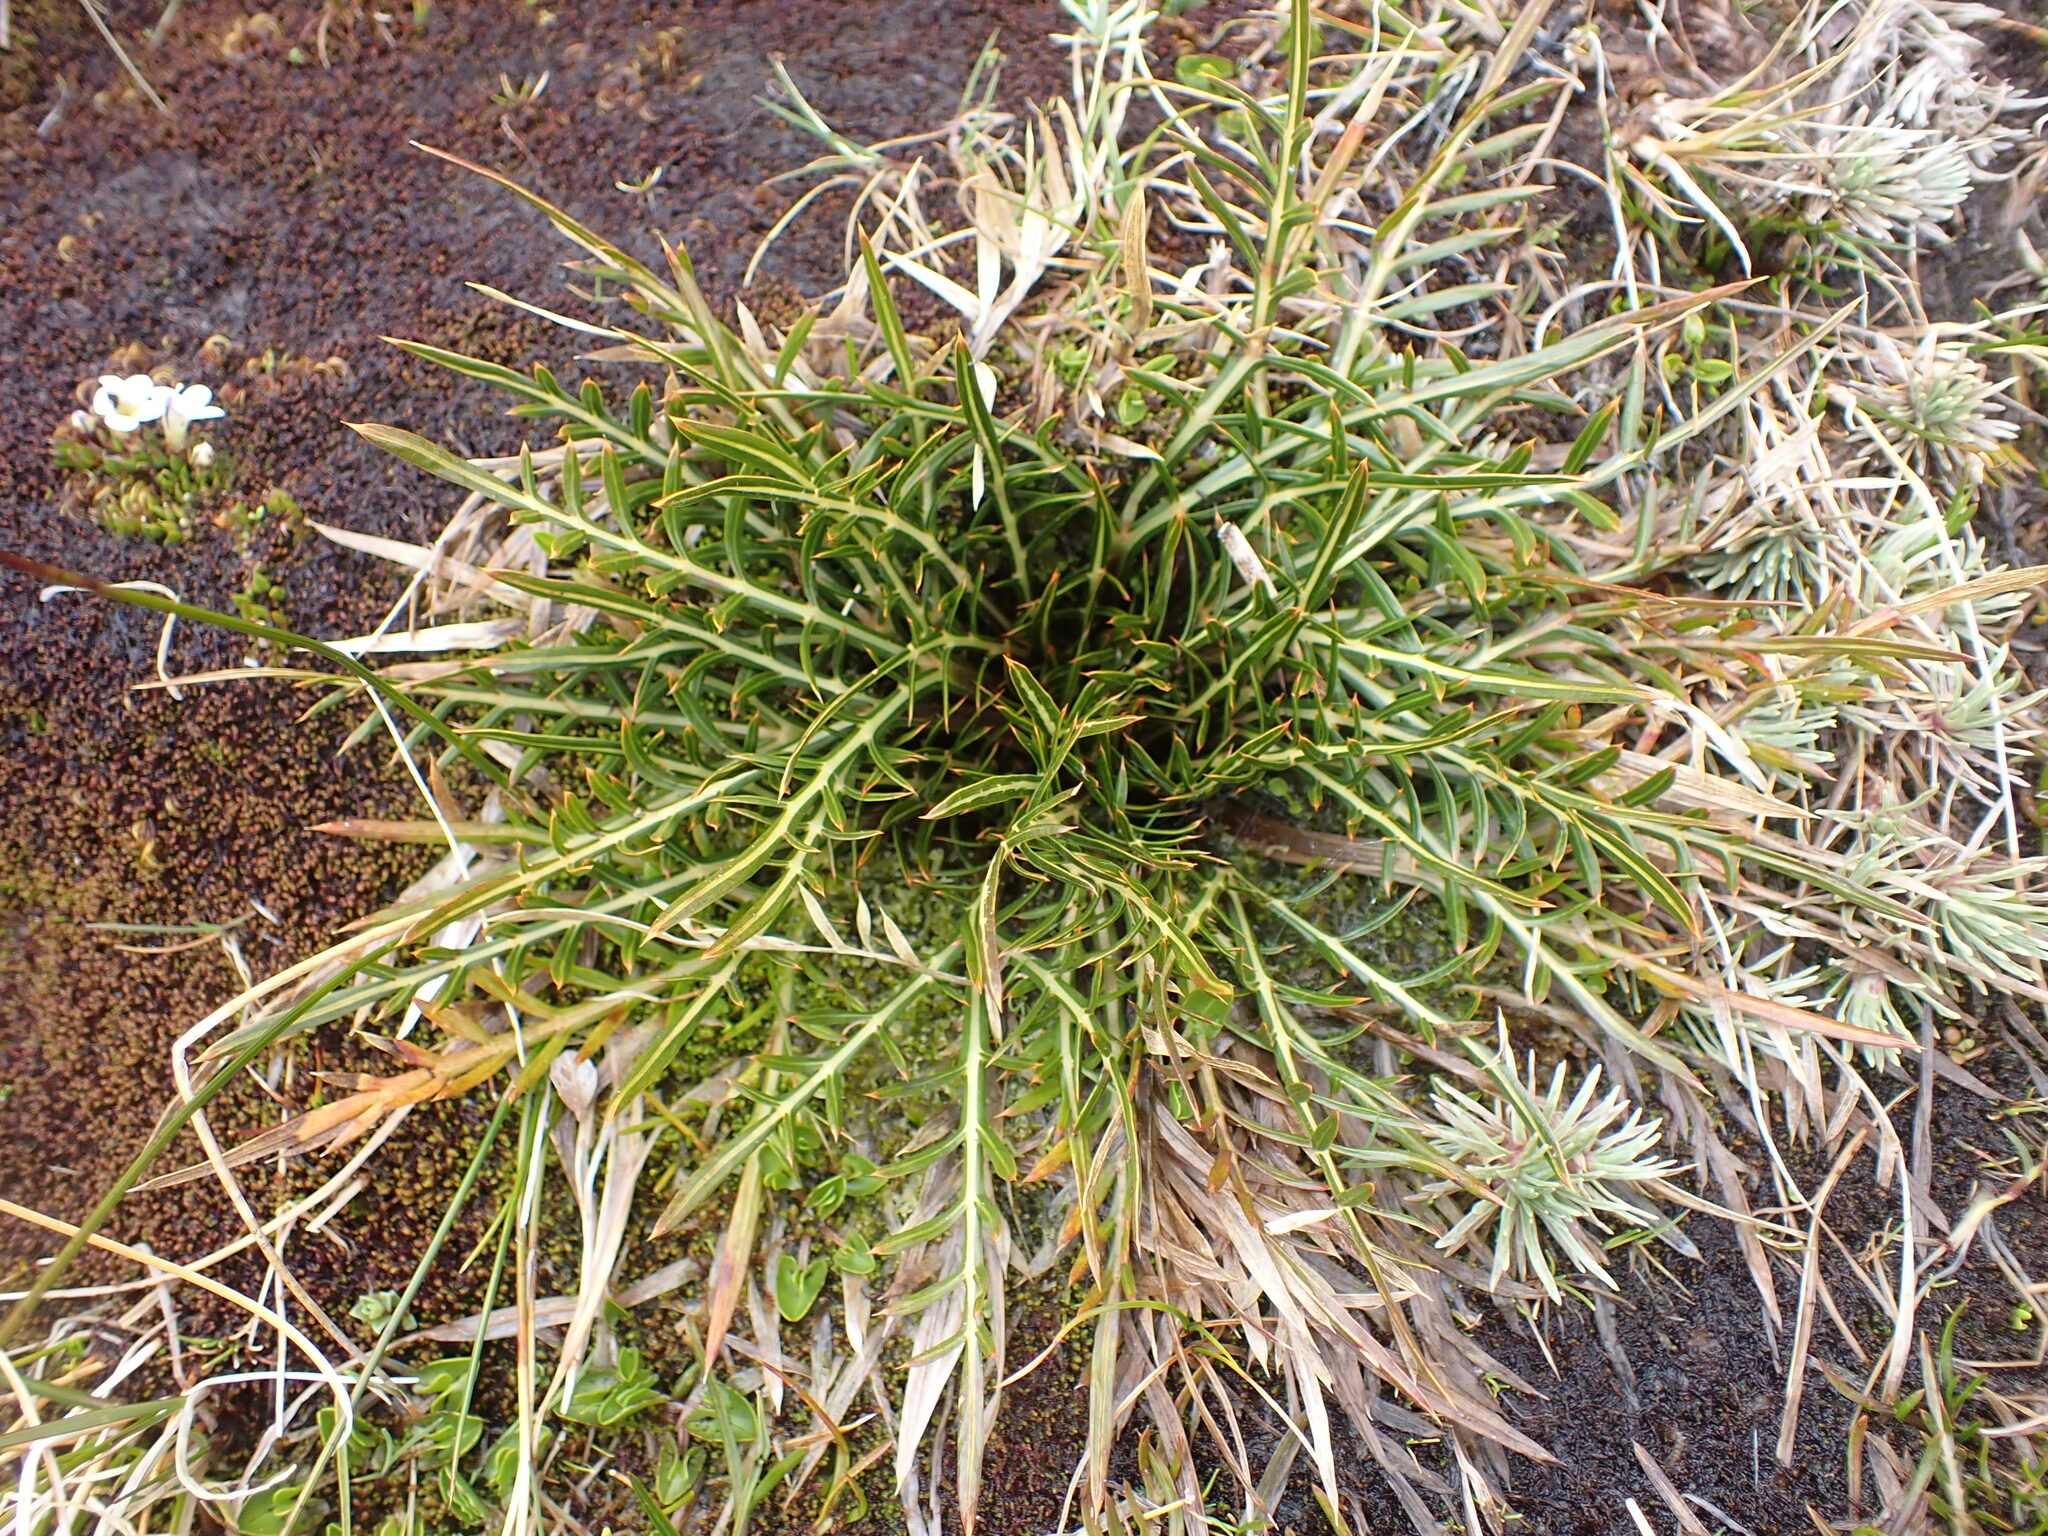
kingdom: Plantae
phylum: Tracheophyta
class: Magnoliopsida
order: Apiales
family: Apiaceae
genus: Aciphylla
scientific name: Aciphylla pinnatifida
